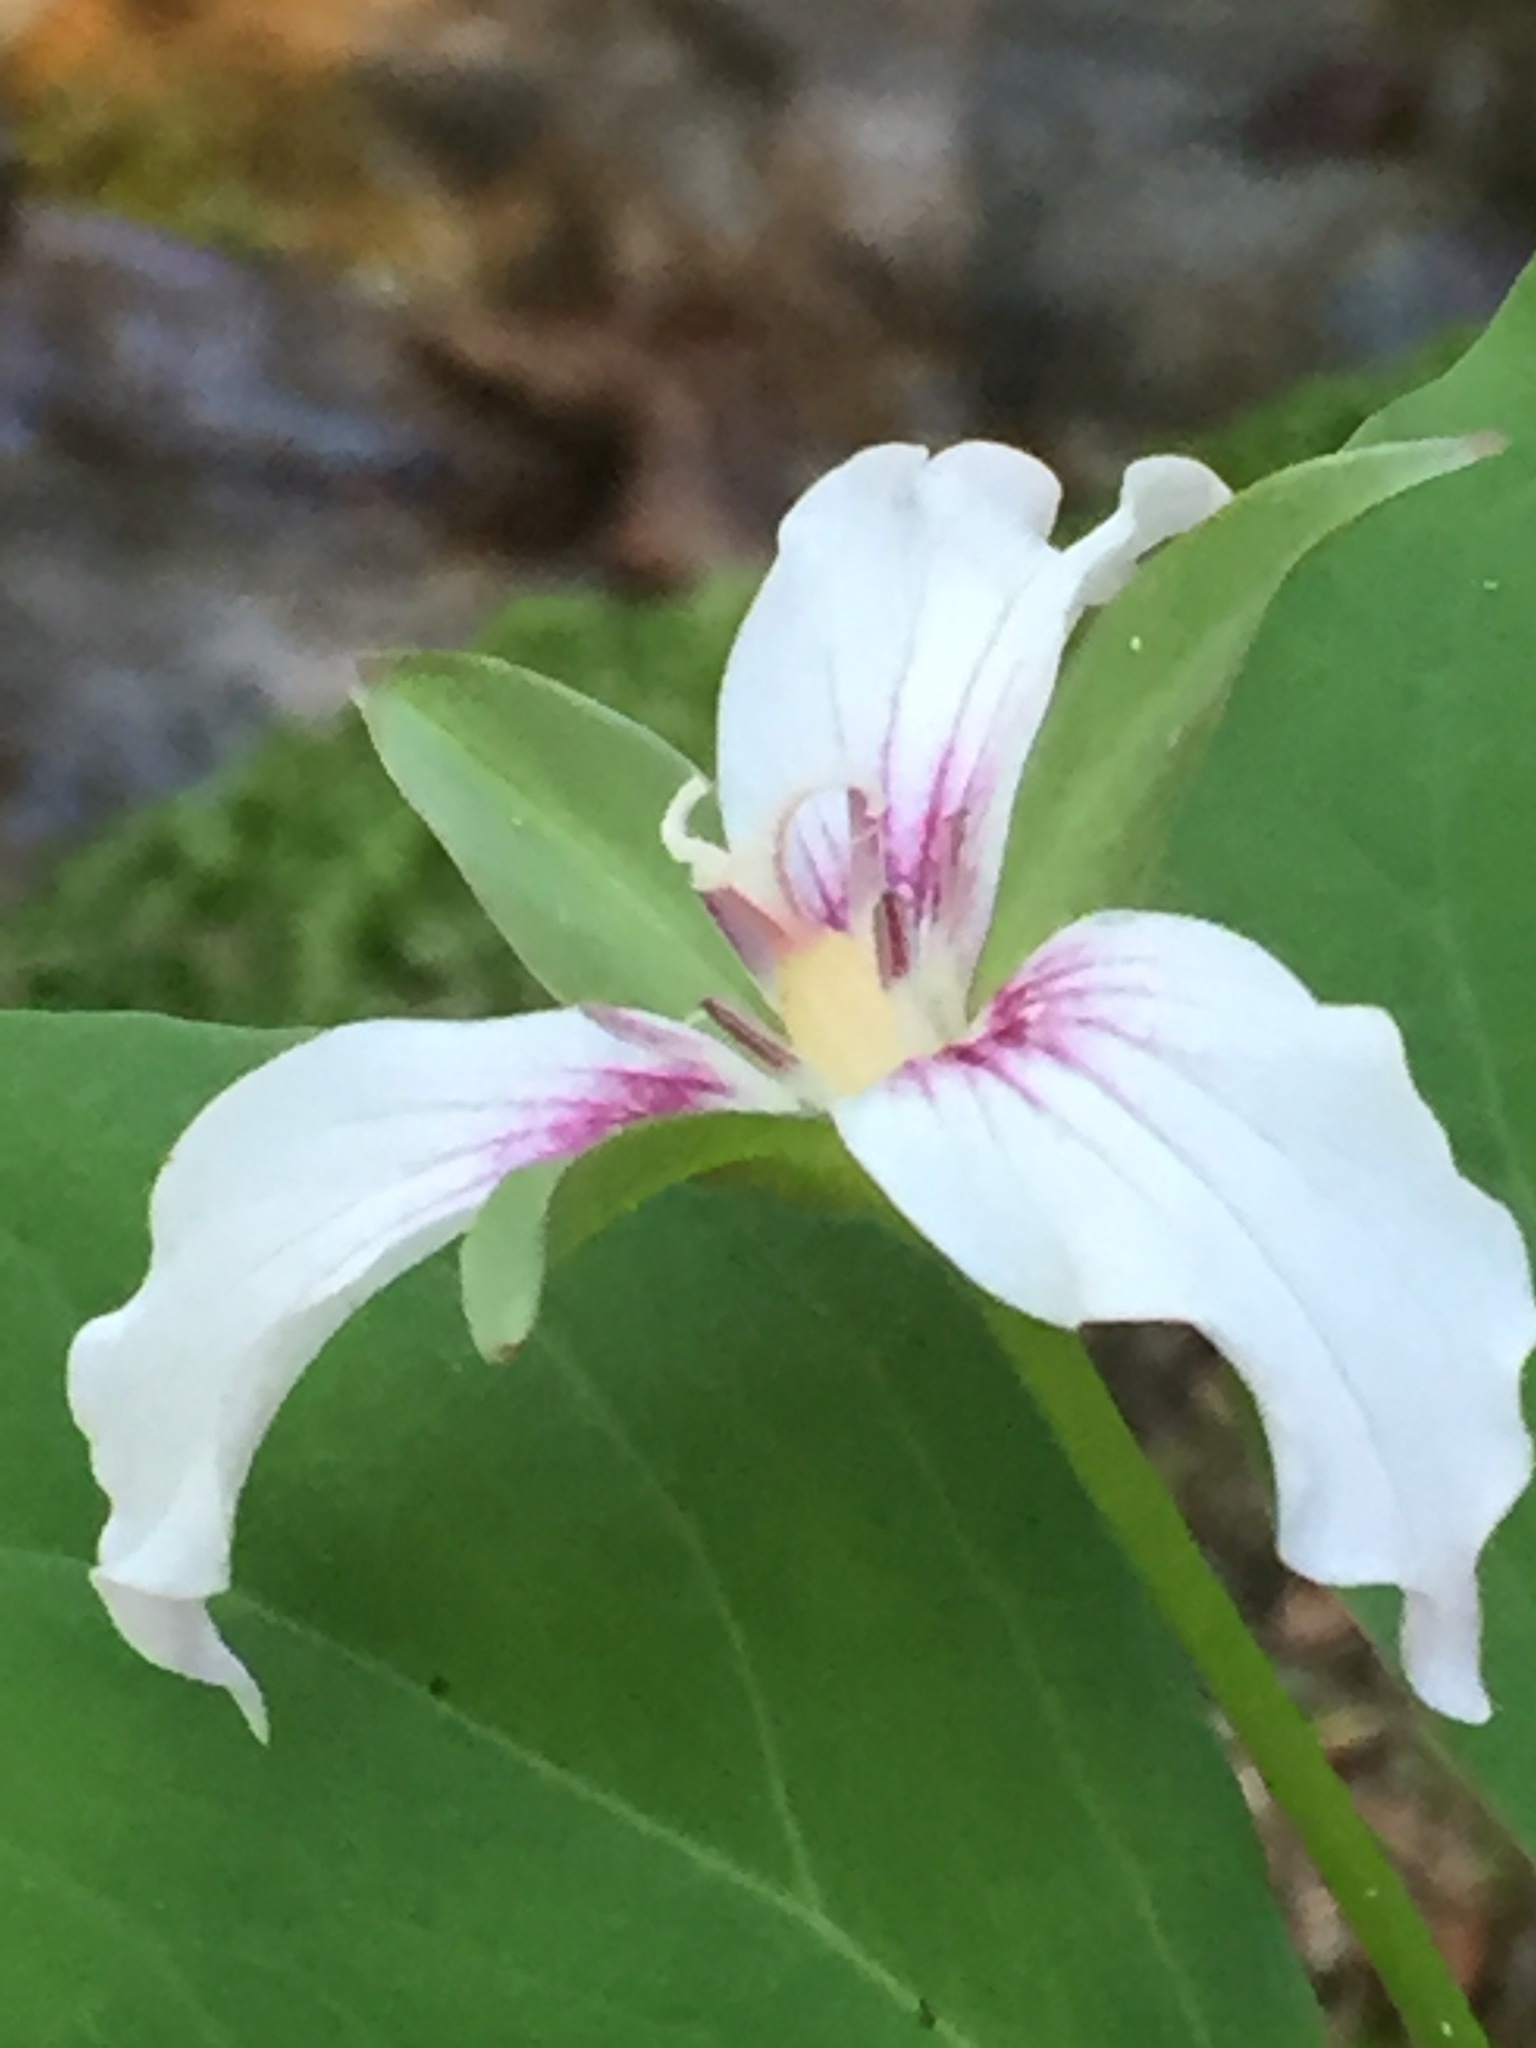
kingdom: Plantae
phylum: Tracheophyta
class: Liliopsida
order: Liliales
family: Melanthiaceae
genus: Trillium
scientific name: Trillium undulatum
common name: Paint trillium
